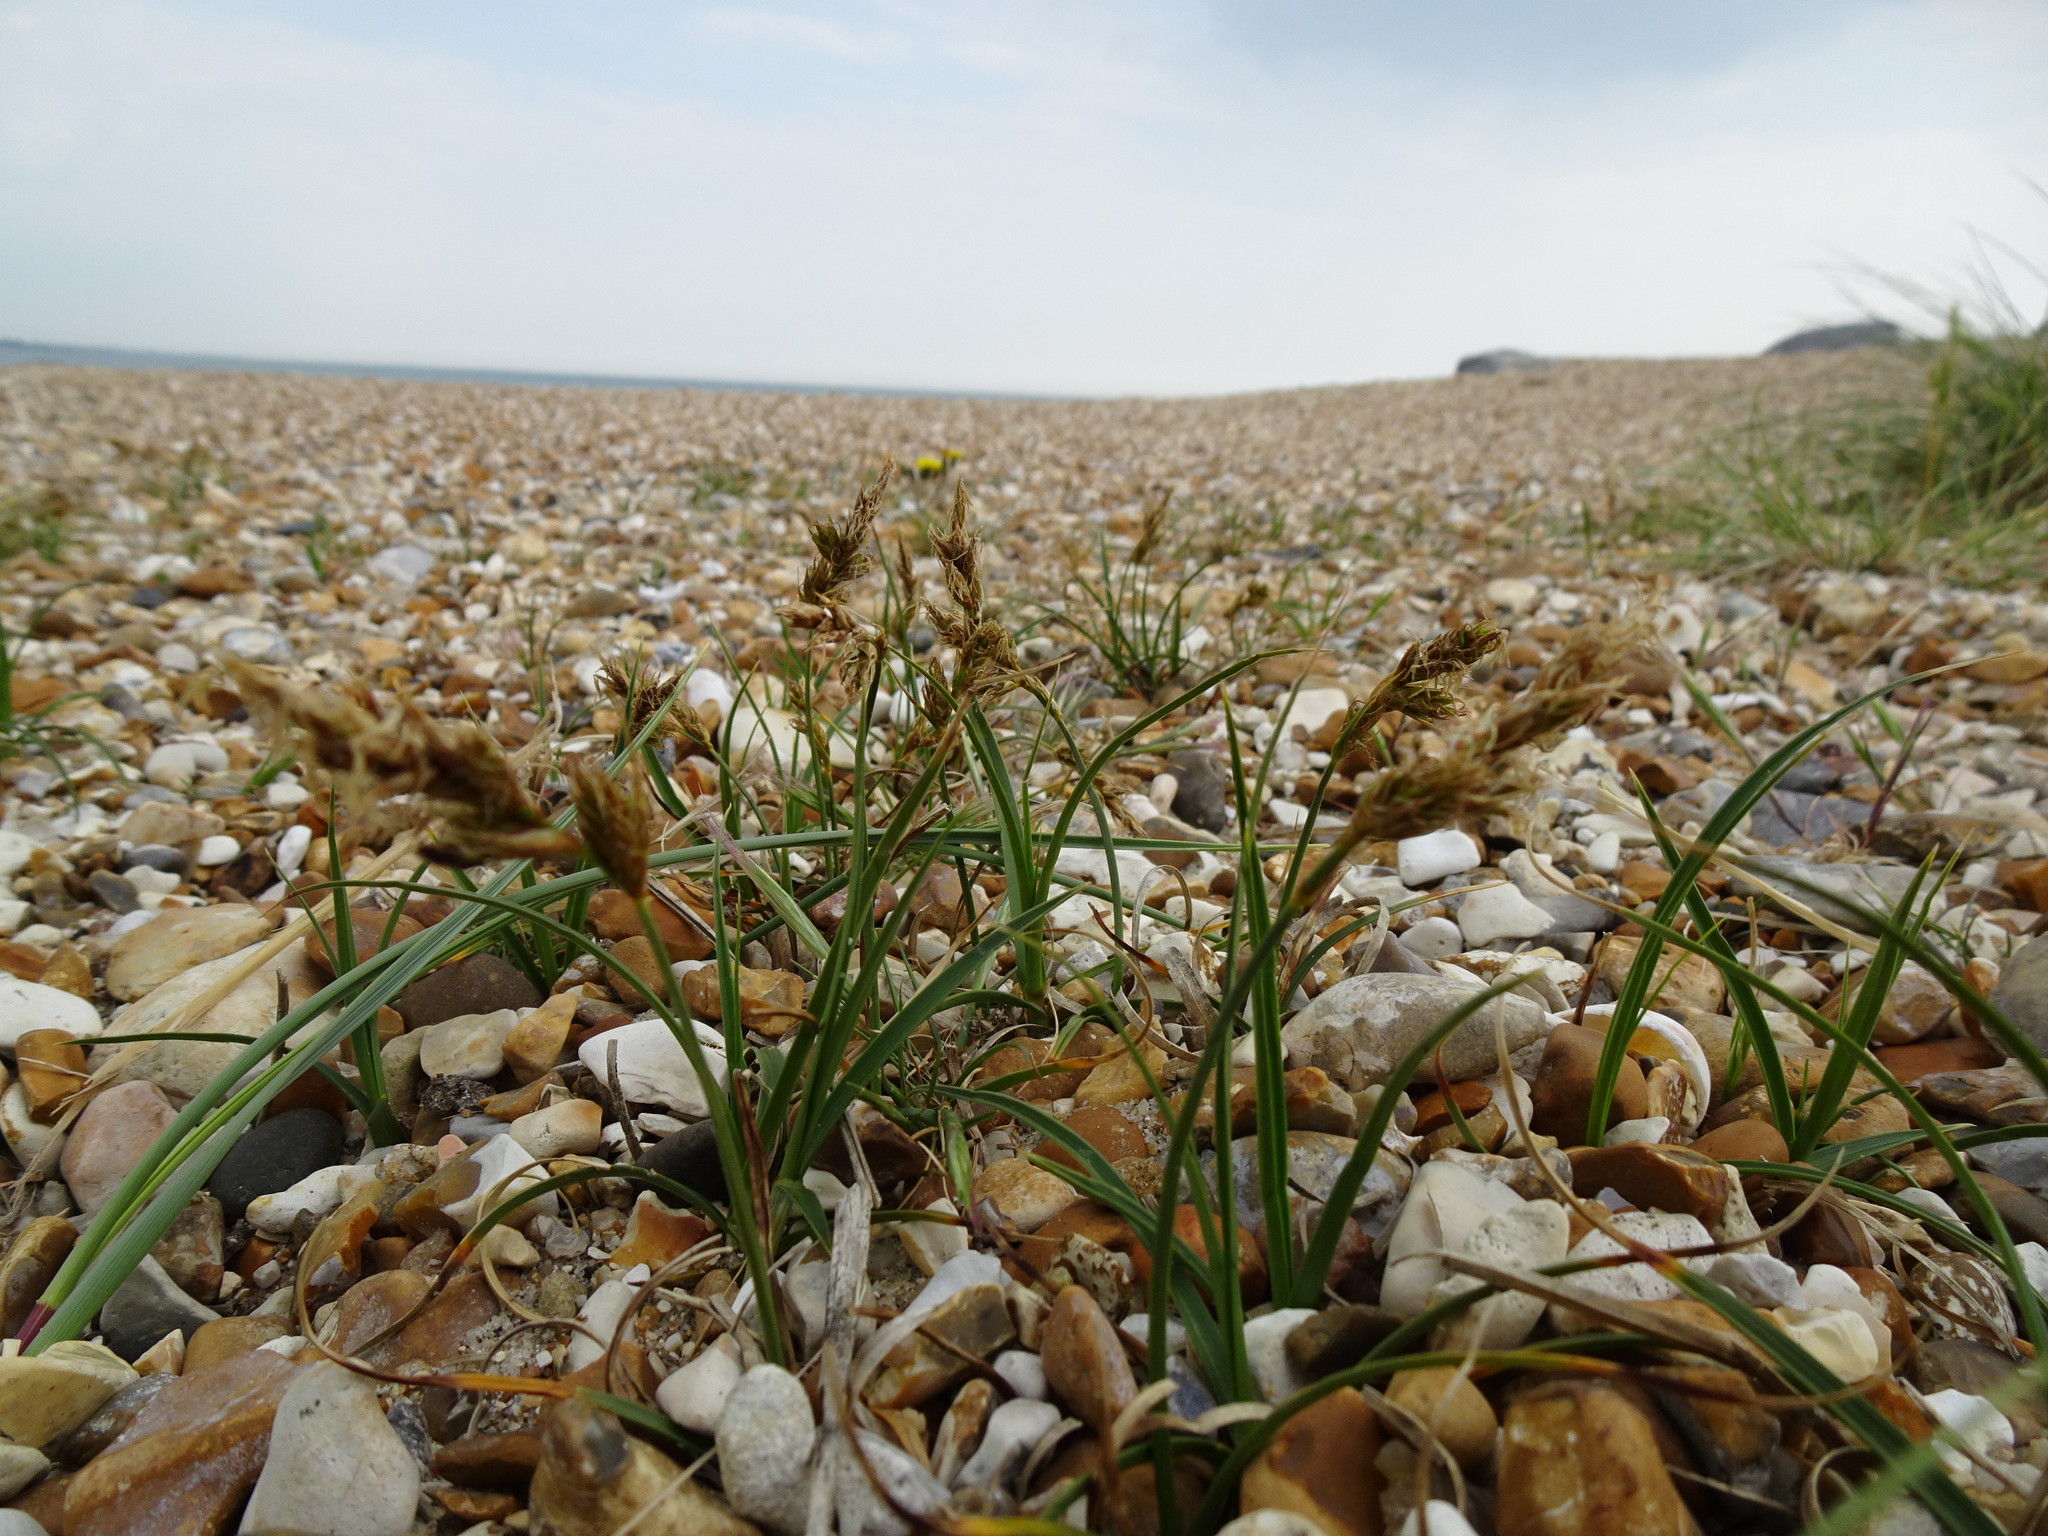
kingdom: Plantae
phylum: Tracheophyta
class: Liliopsida
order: Poales
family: Cyperaceae
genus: Carex
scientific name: Carex arenaria
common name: Sand sedge
